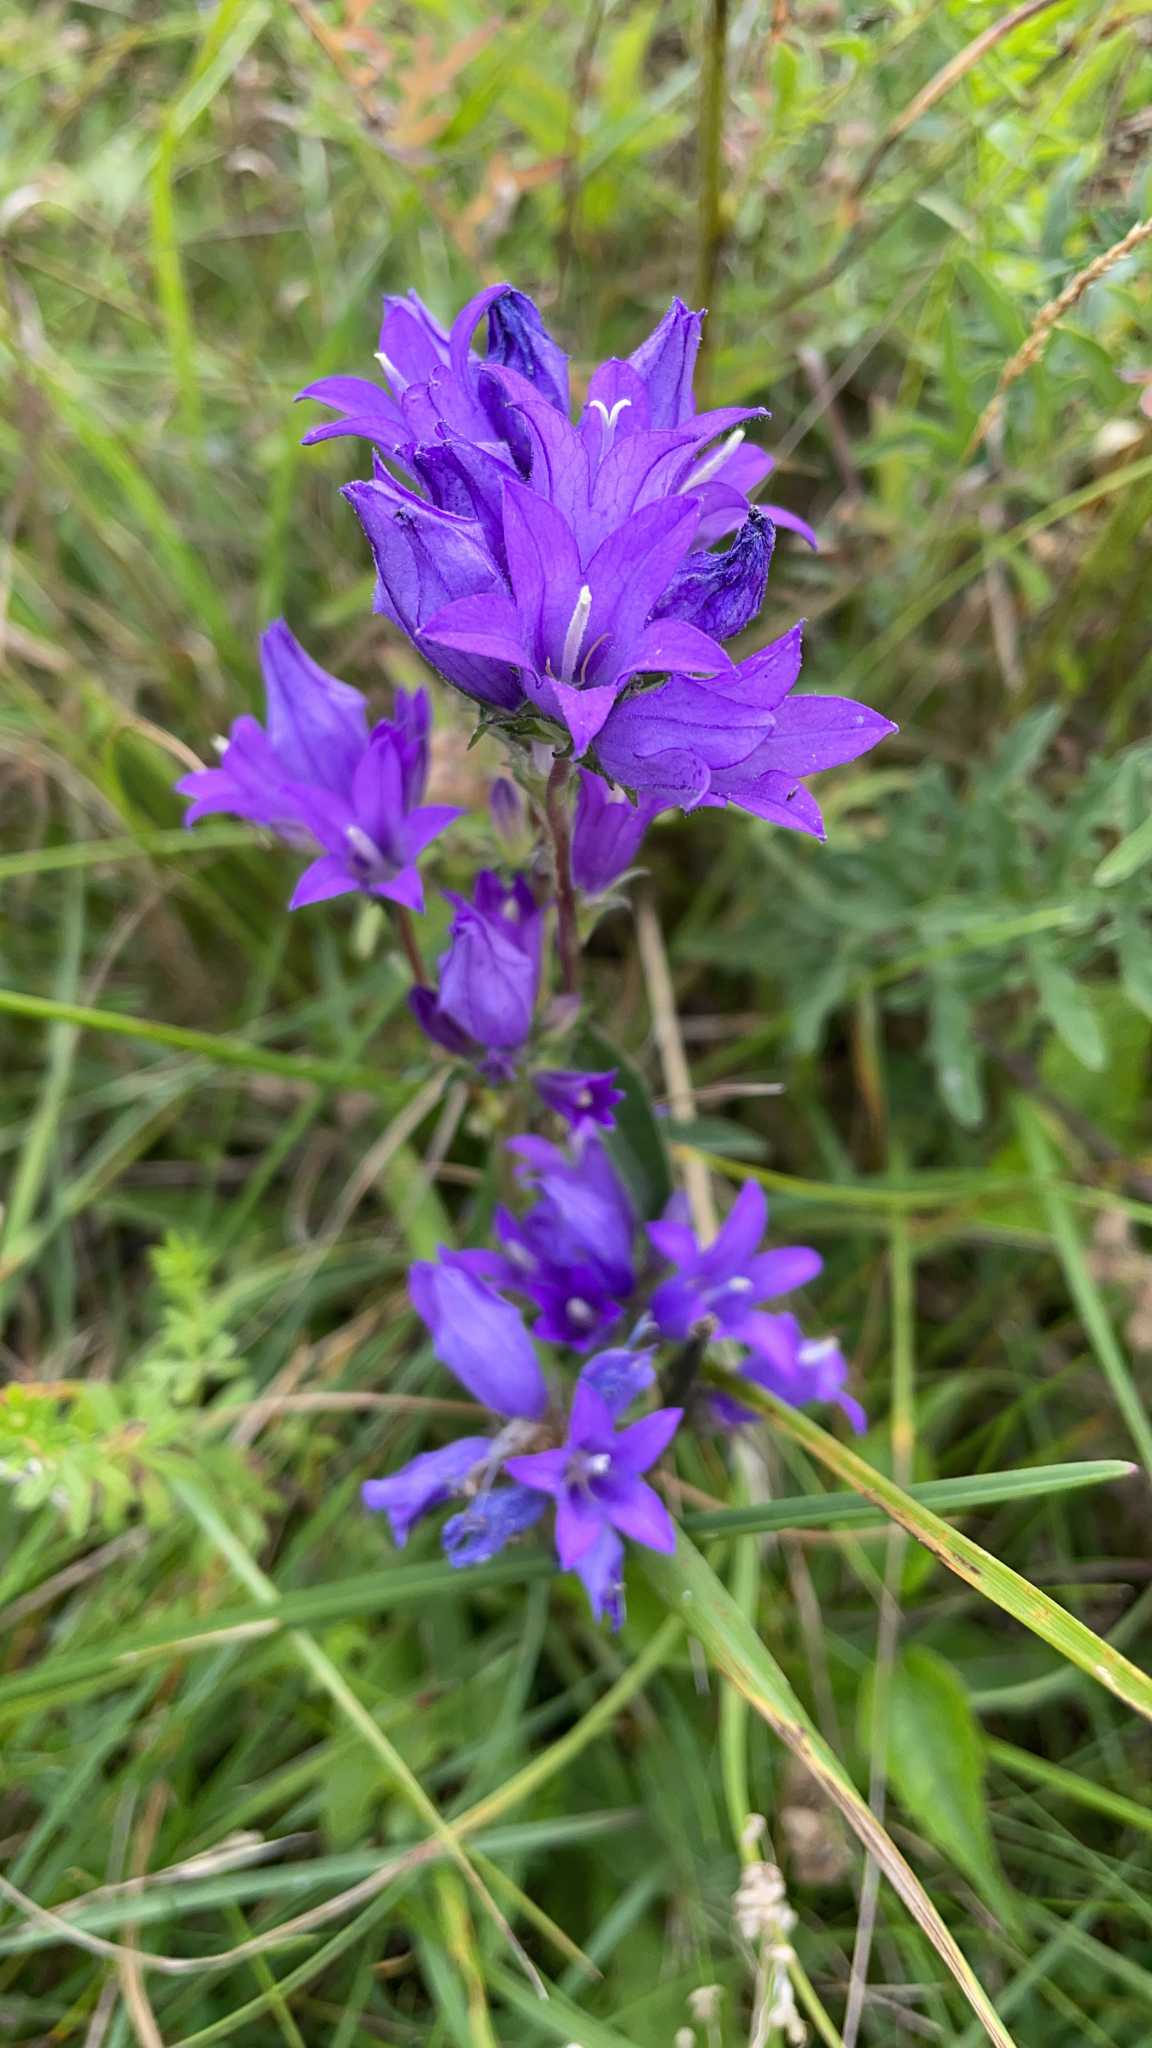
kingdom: Plantae
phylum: Tracheophyta
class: Magnoliopsida
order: Asterales
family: Campanulaceae
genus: Campanula
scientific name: Campanula glomerata
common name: Clustered bellflower
